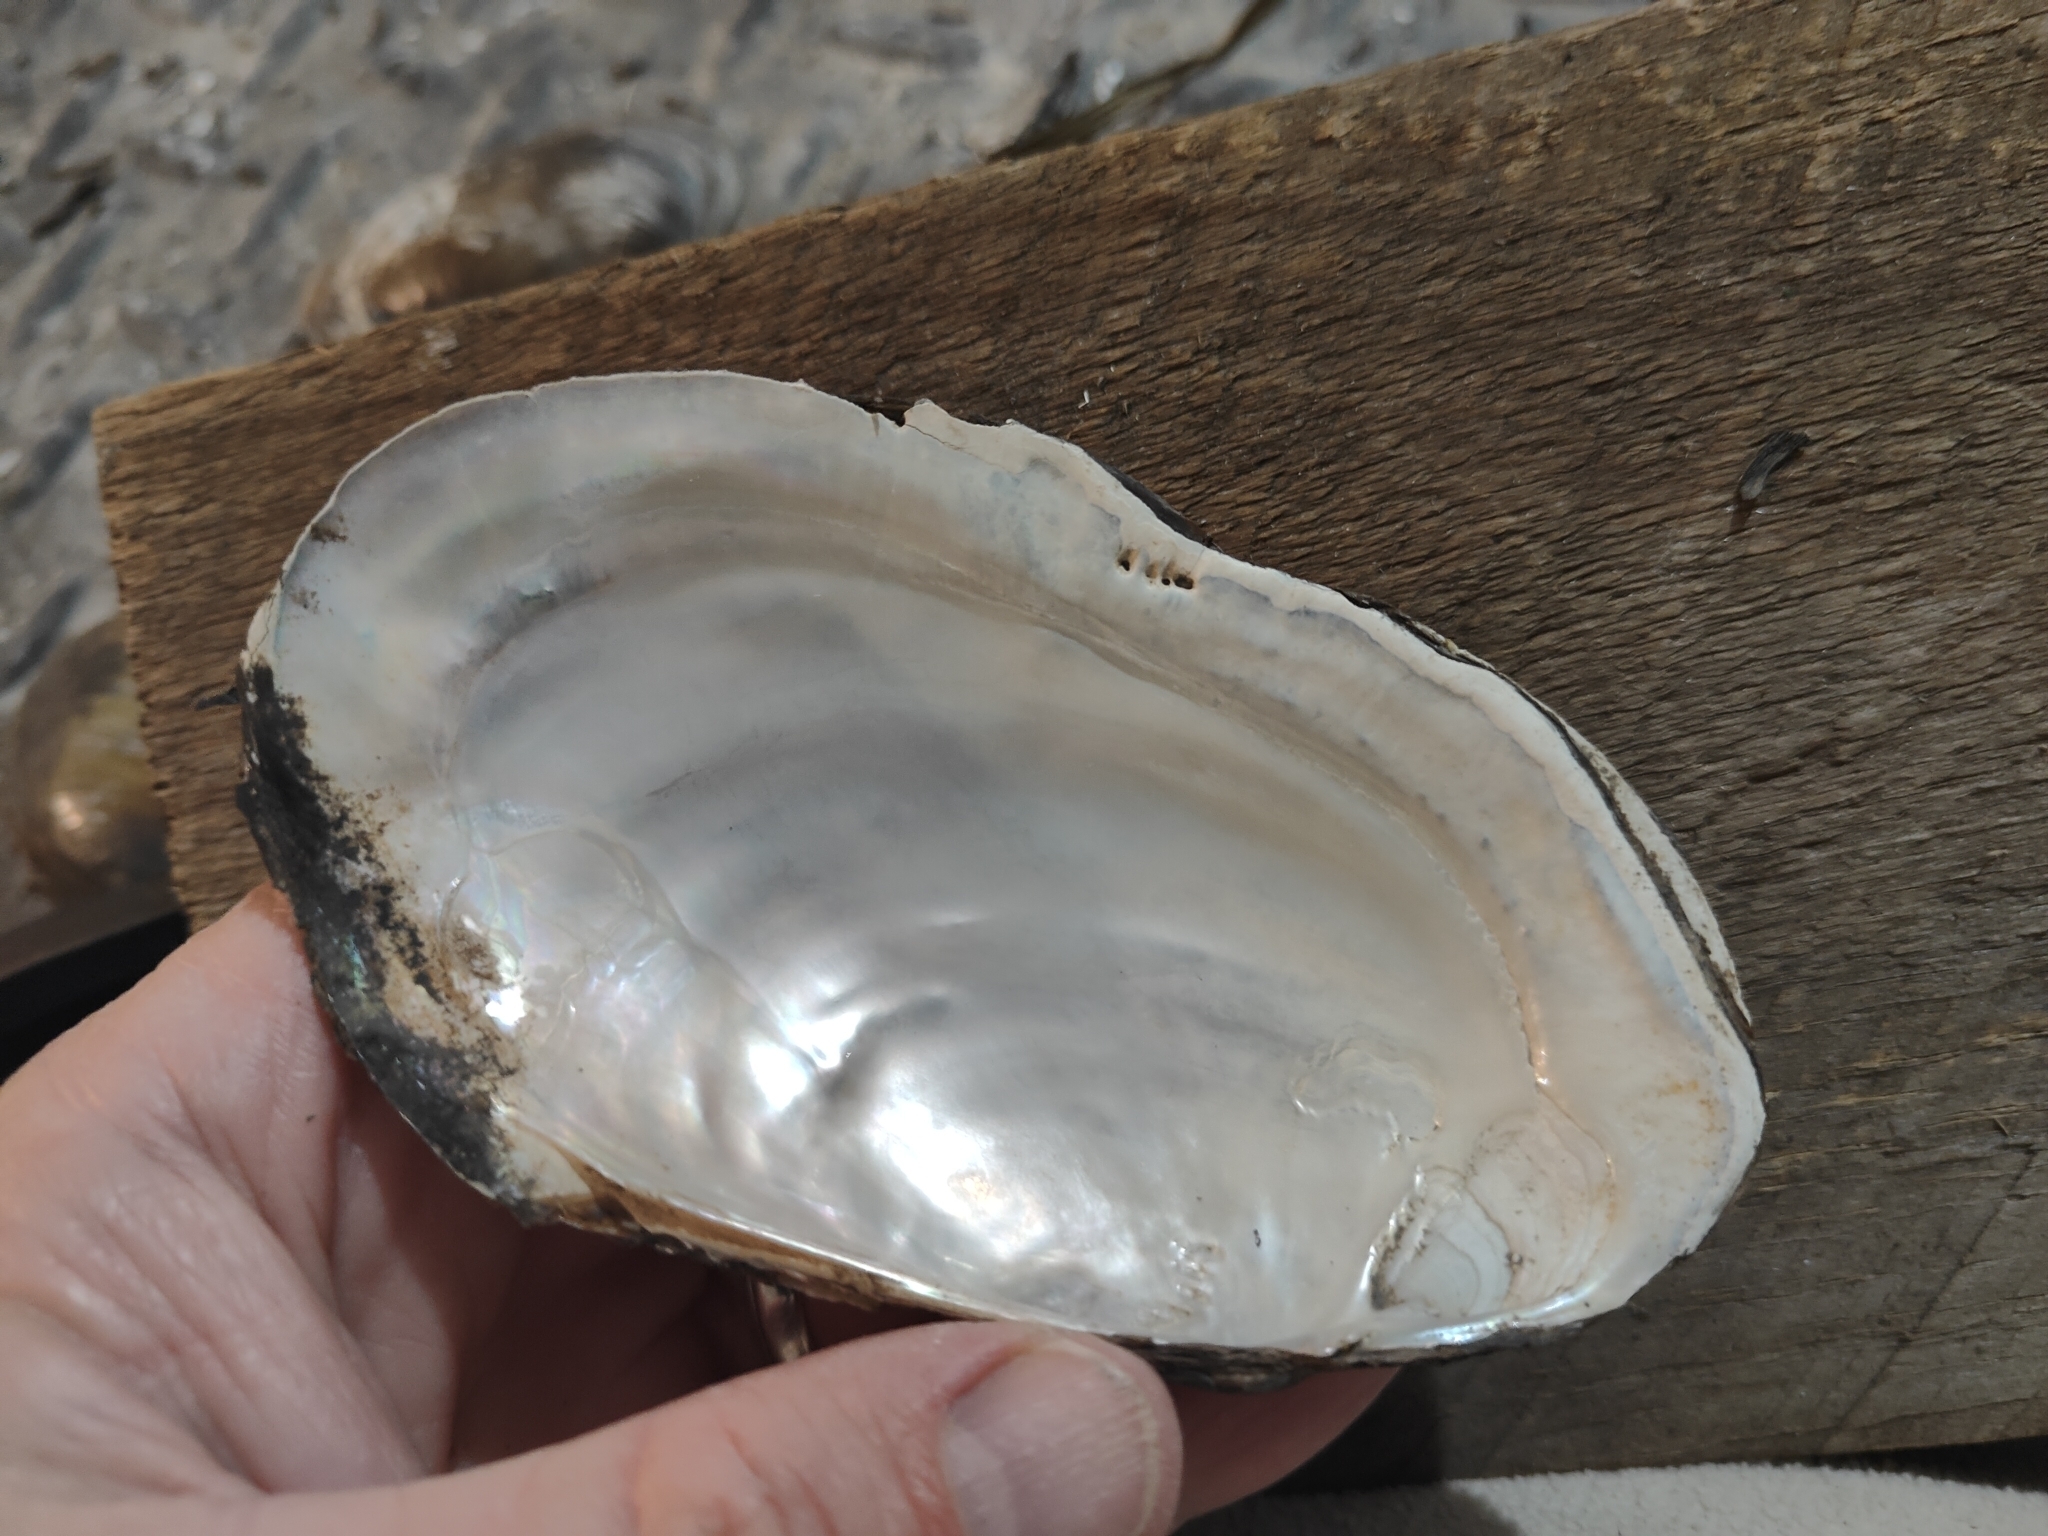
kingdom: Animalia
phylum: Mollusca
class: Bivalvia
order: Unionida
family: Unionidae
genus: Potamilus
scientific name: Potamilus fragilis
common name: Fragile papershell
